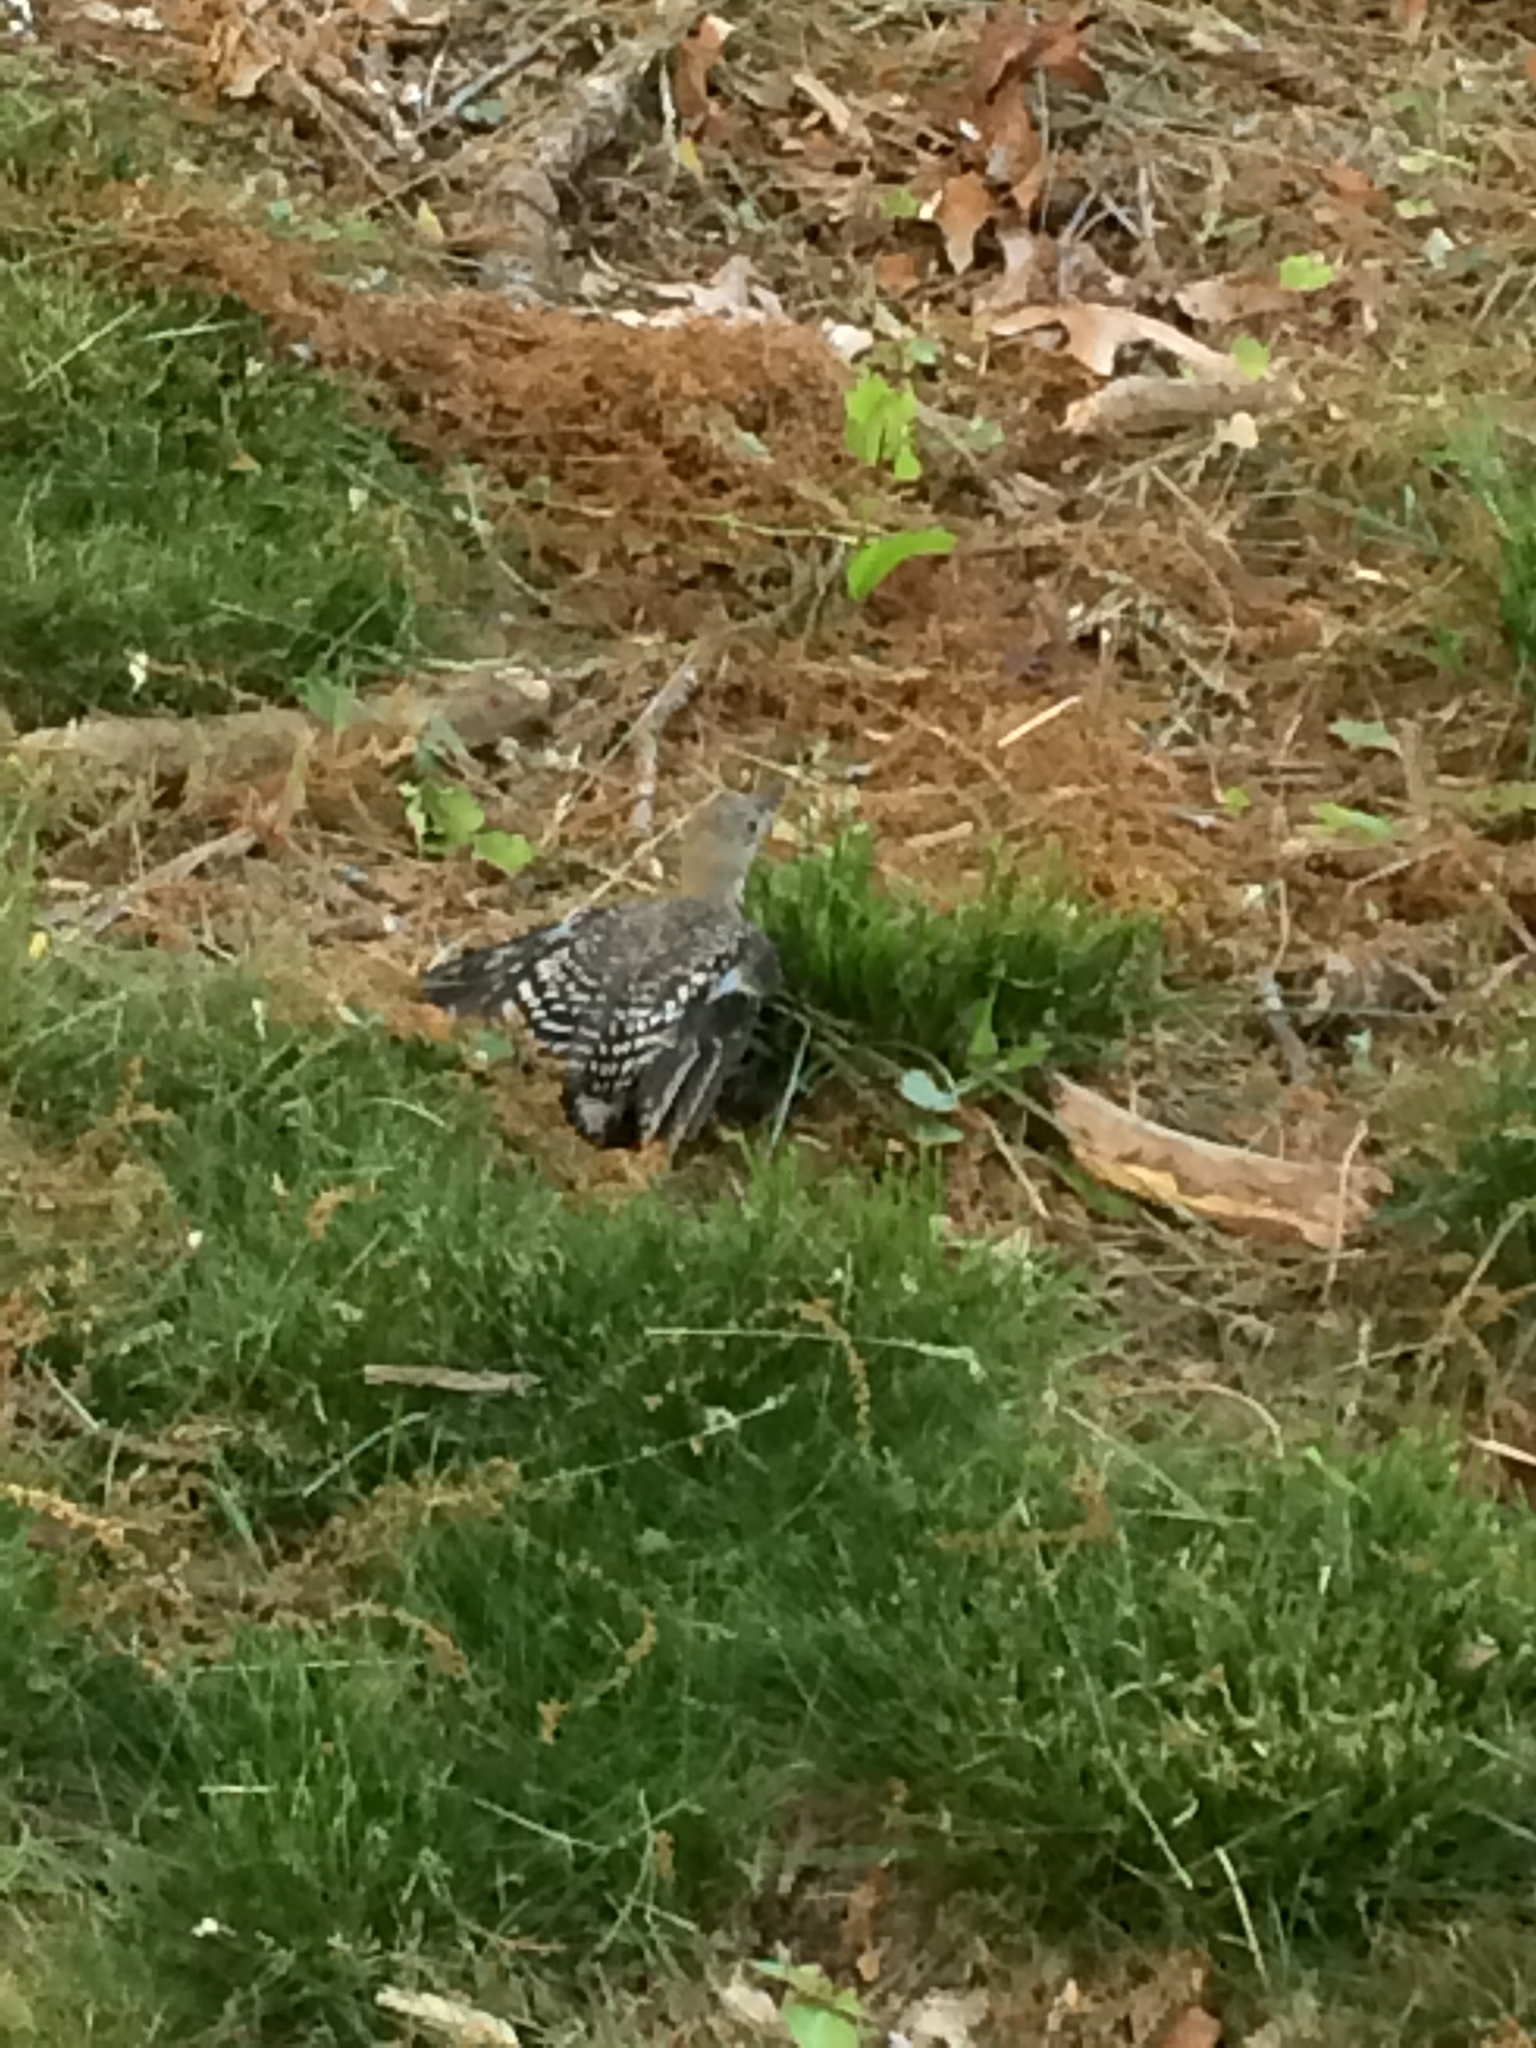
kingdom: Animalia
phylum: Chordata
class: Aves
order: Piciformes
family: Picidae
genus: Melanerpes
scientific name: Melanerpes carolinus
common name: Red-bellied woodpecker
